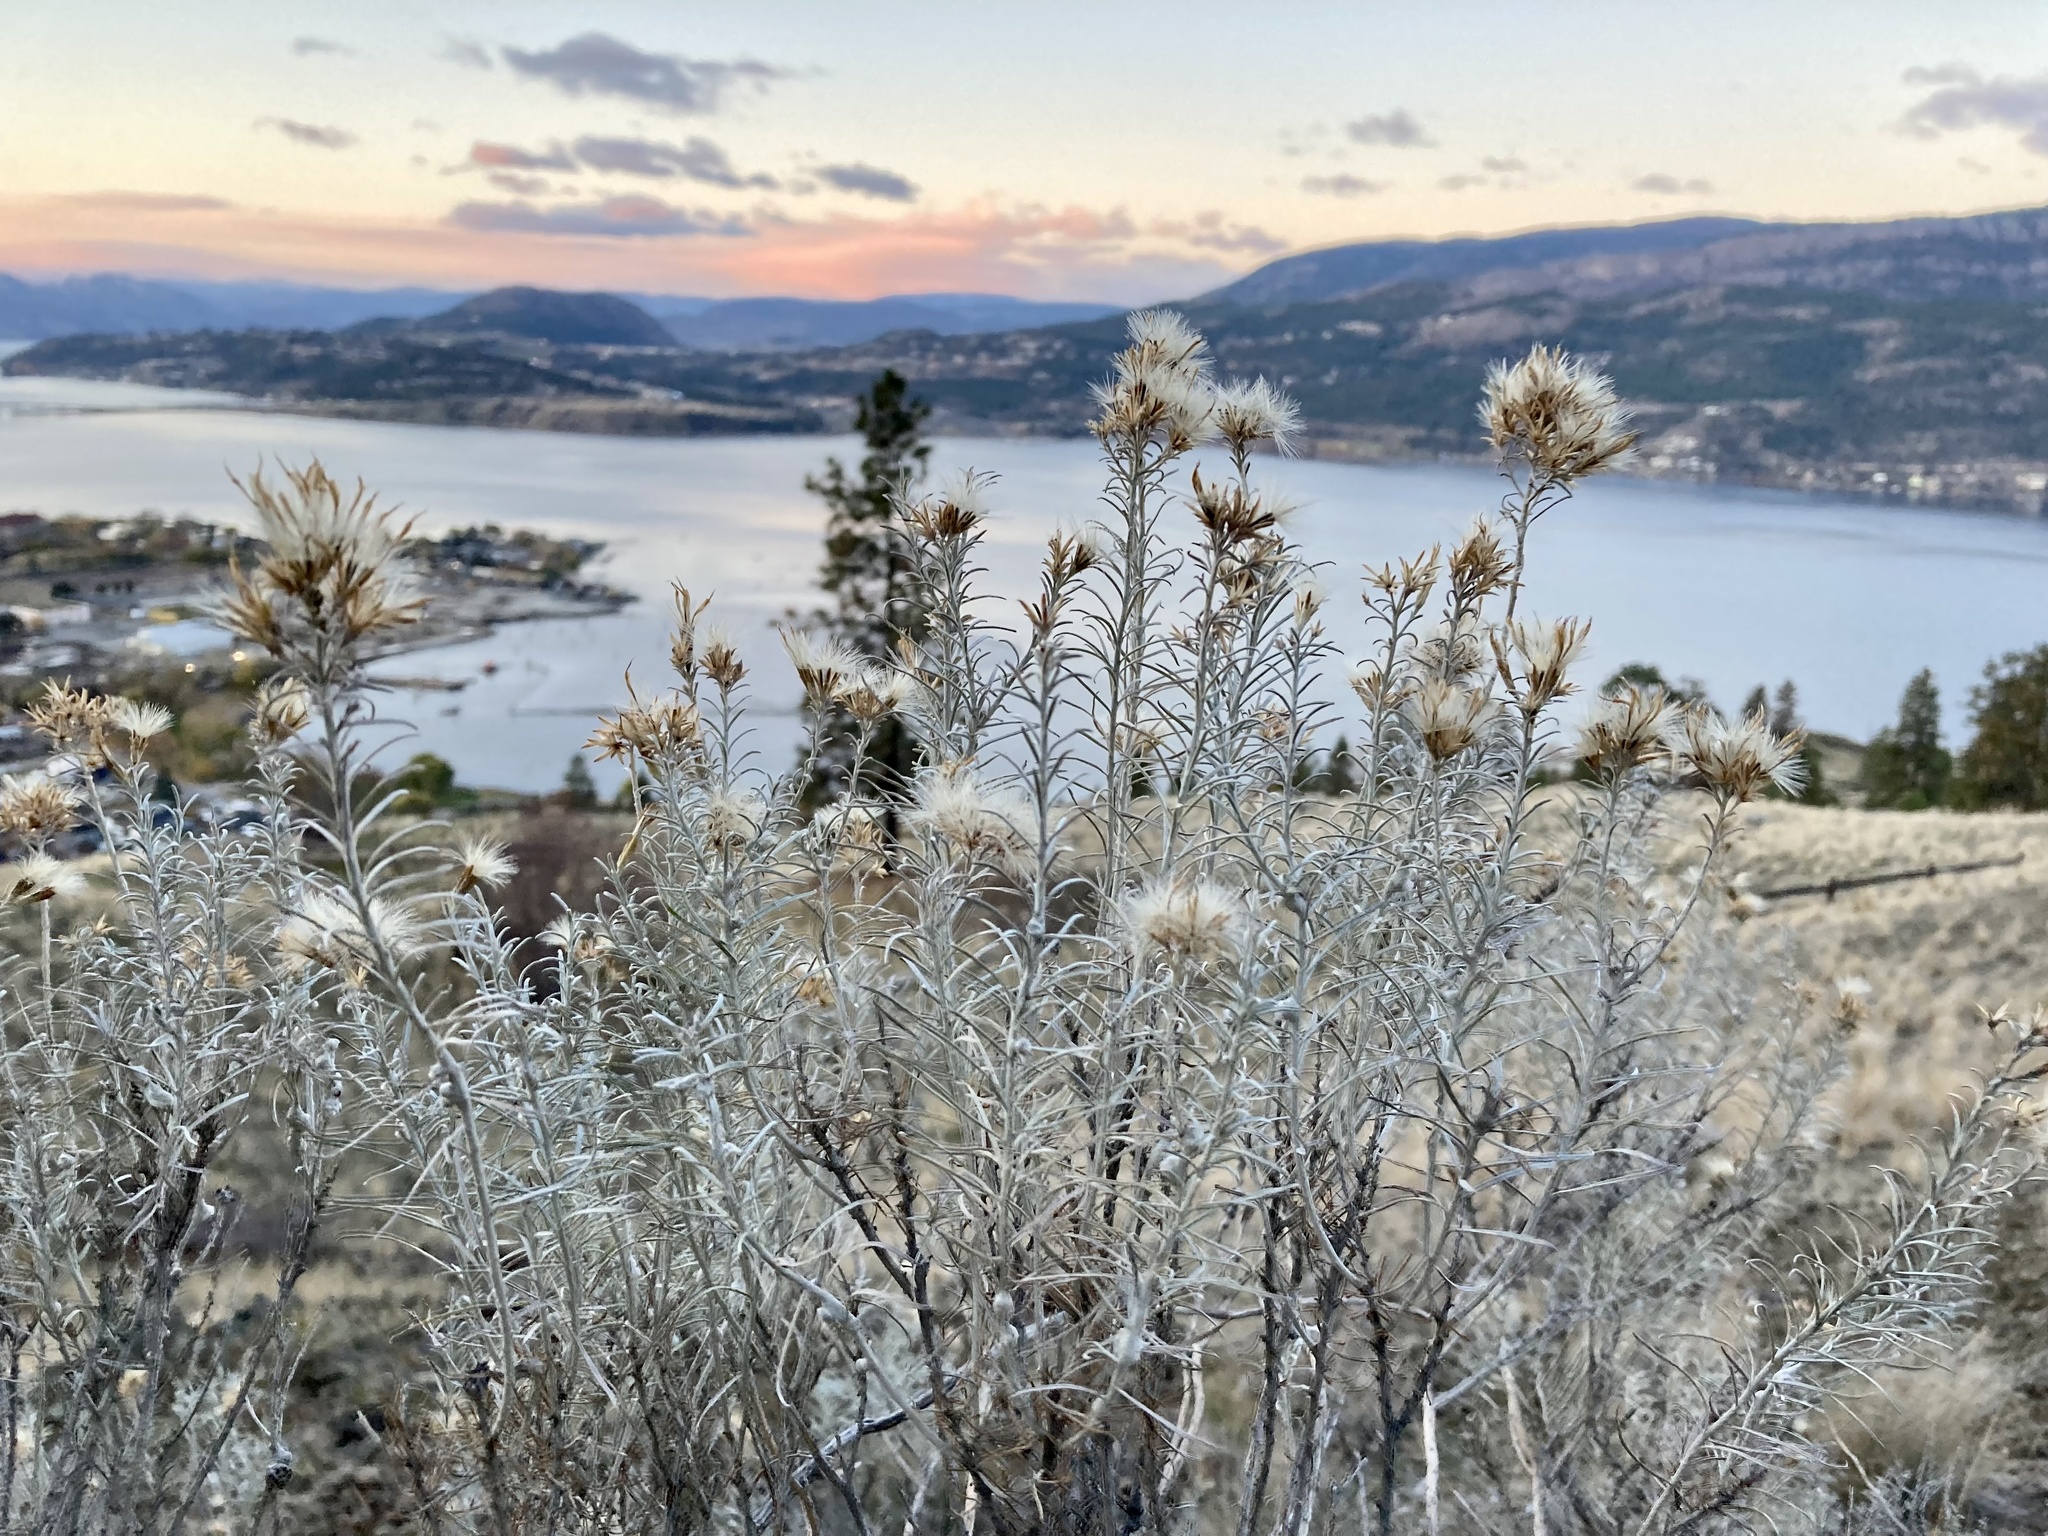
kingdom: Plantae
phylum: Tracheophyta
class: Magnoliopsida
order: Asterales
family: Asteraceae
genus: Ericameria
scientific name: Ericameria nauseosa
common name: Rubber rabbitbrush
